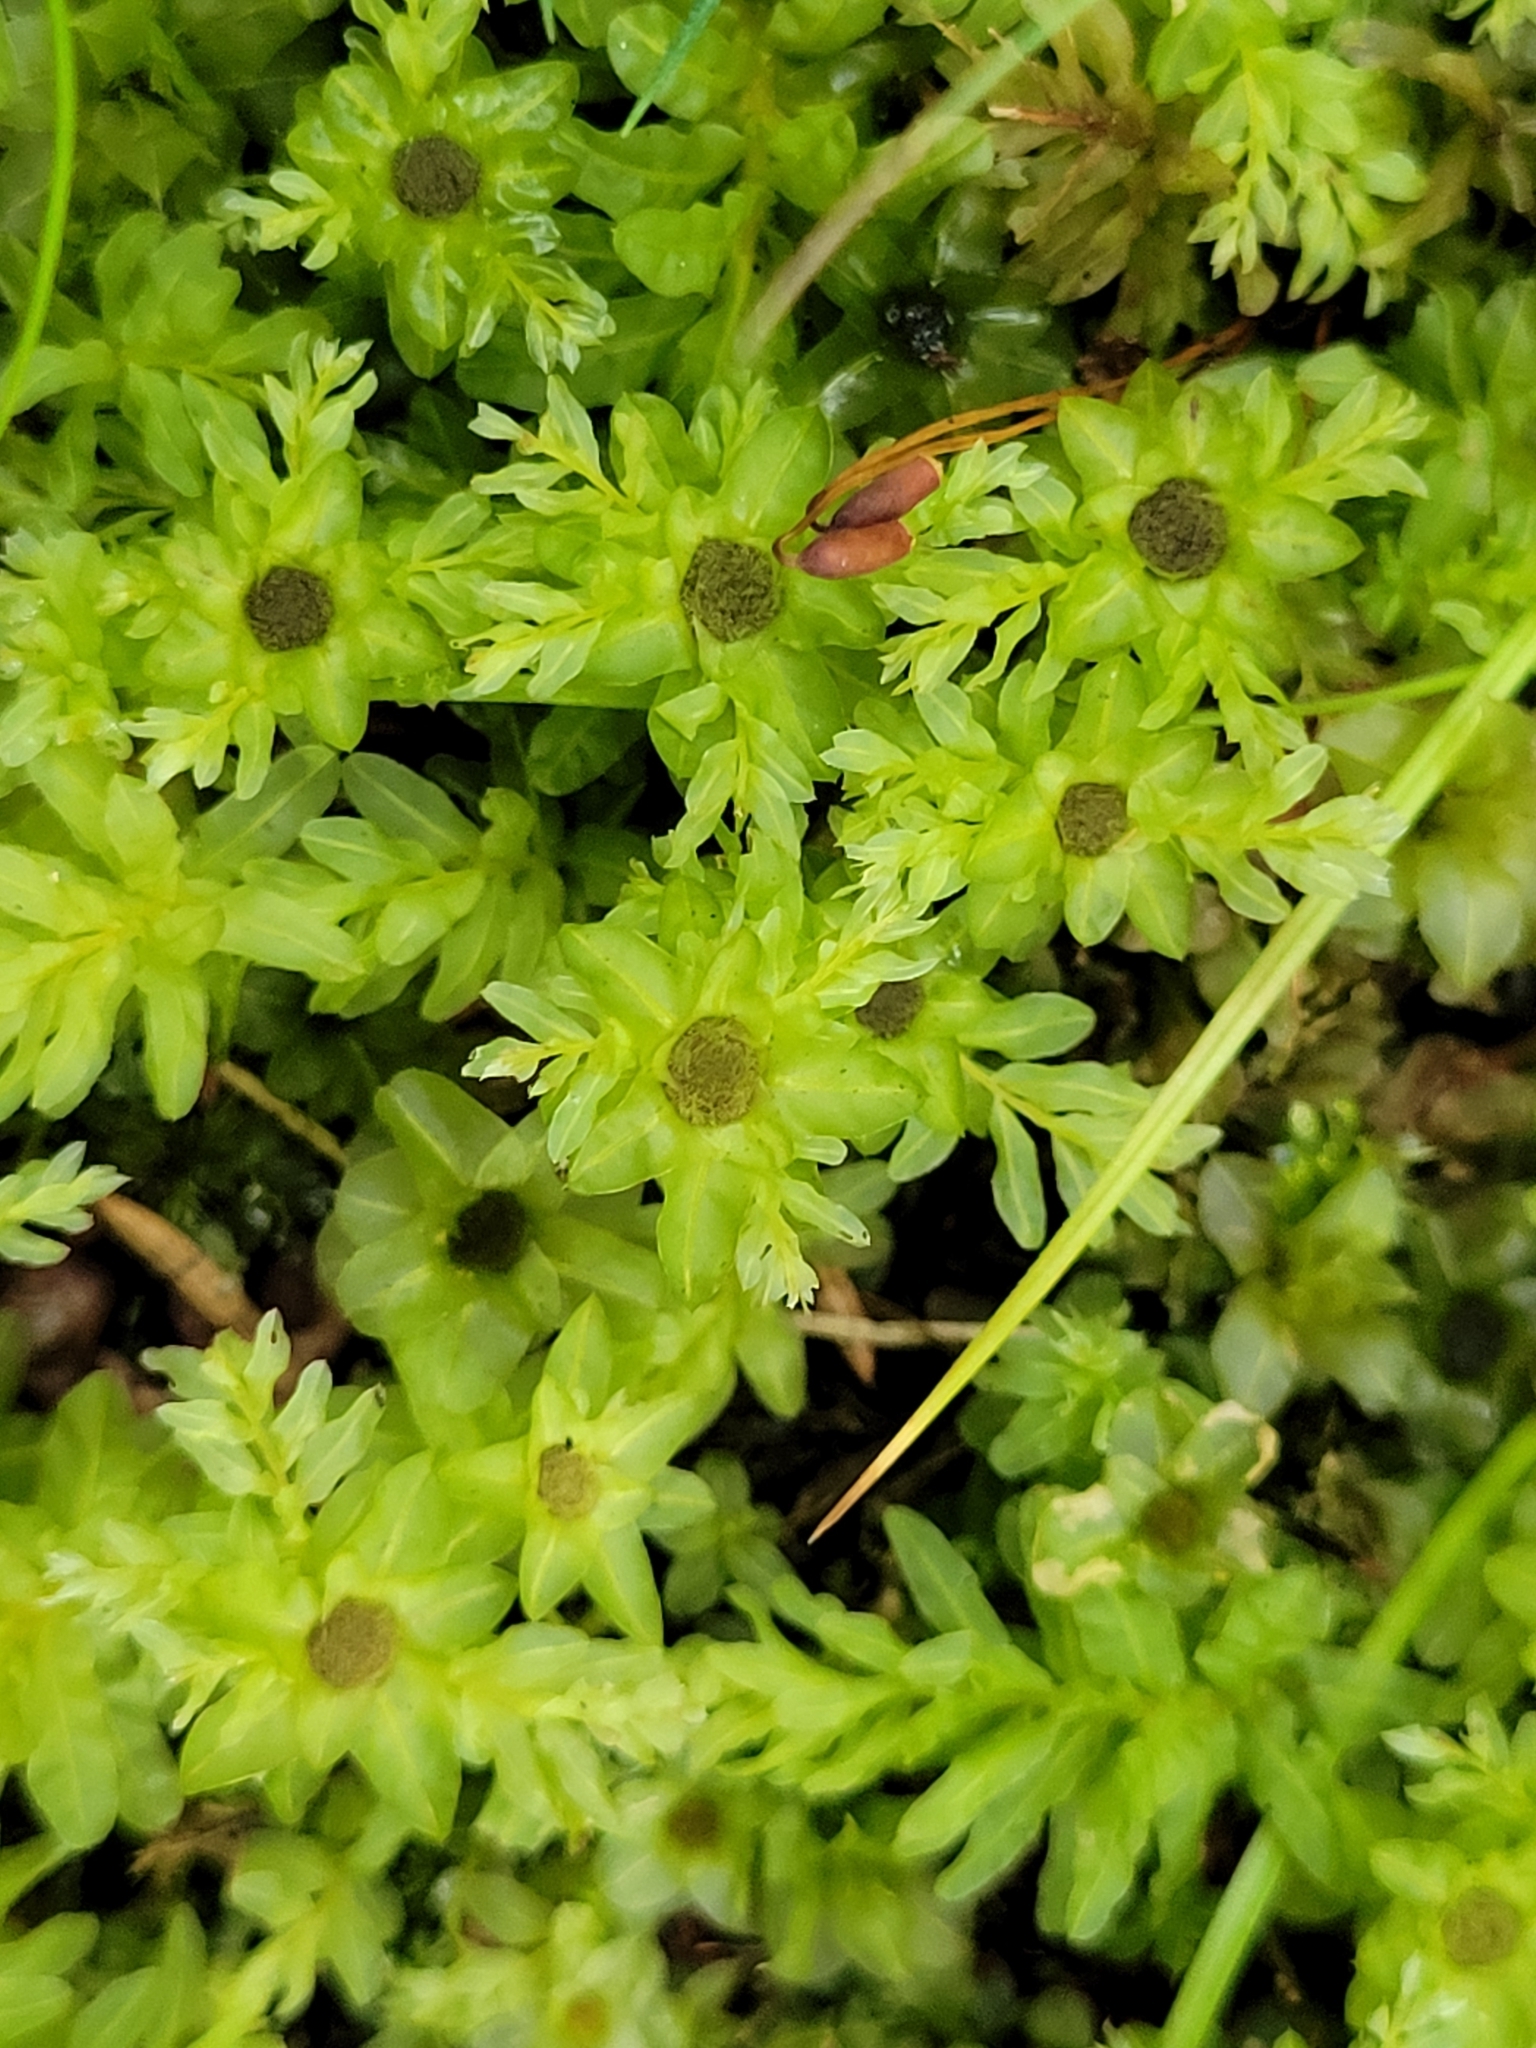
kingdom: Plantae
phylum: Bryophyta
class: Bryopsida
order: Bryales
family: Mniaceae
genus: Plagiomnium
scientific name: Plagiomnium undulatum
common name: Hart's-tongue thyme-moss
